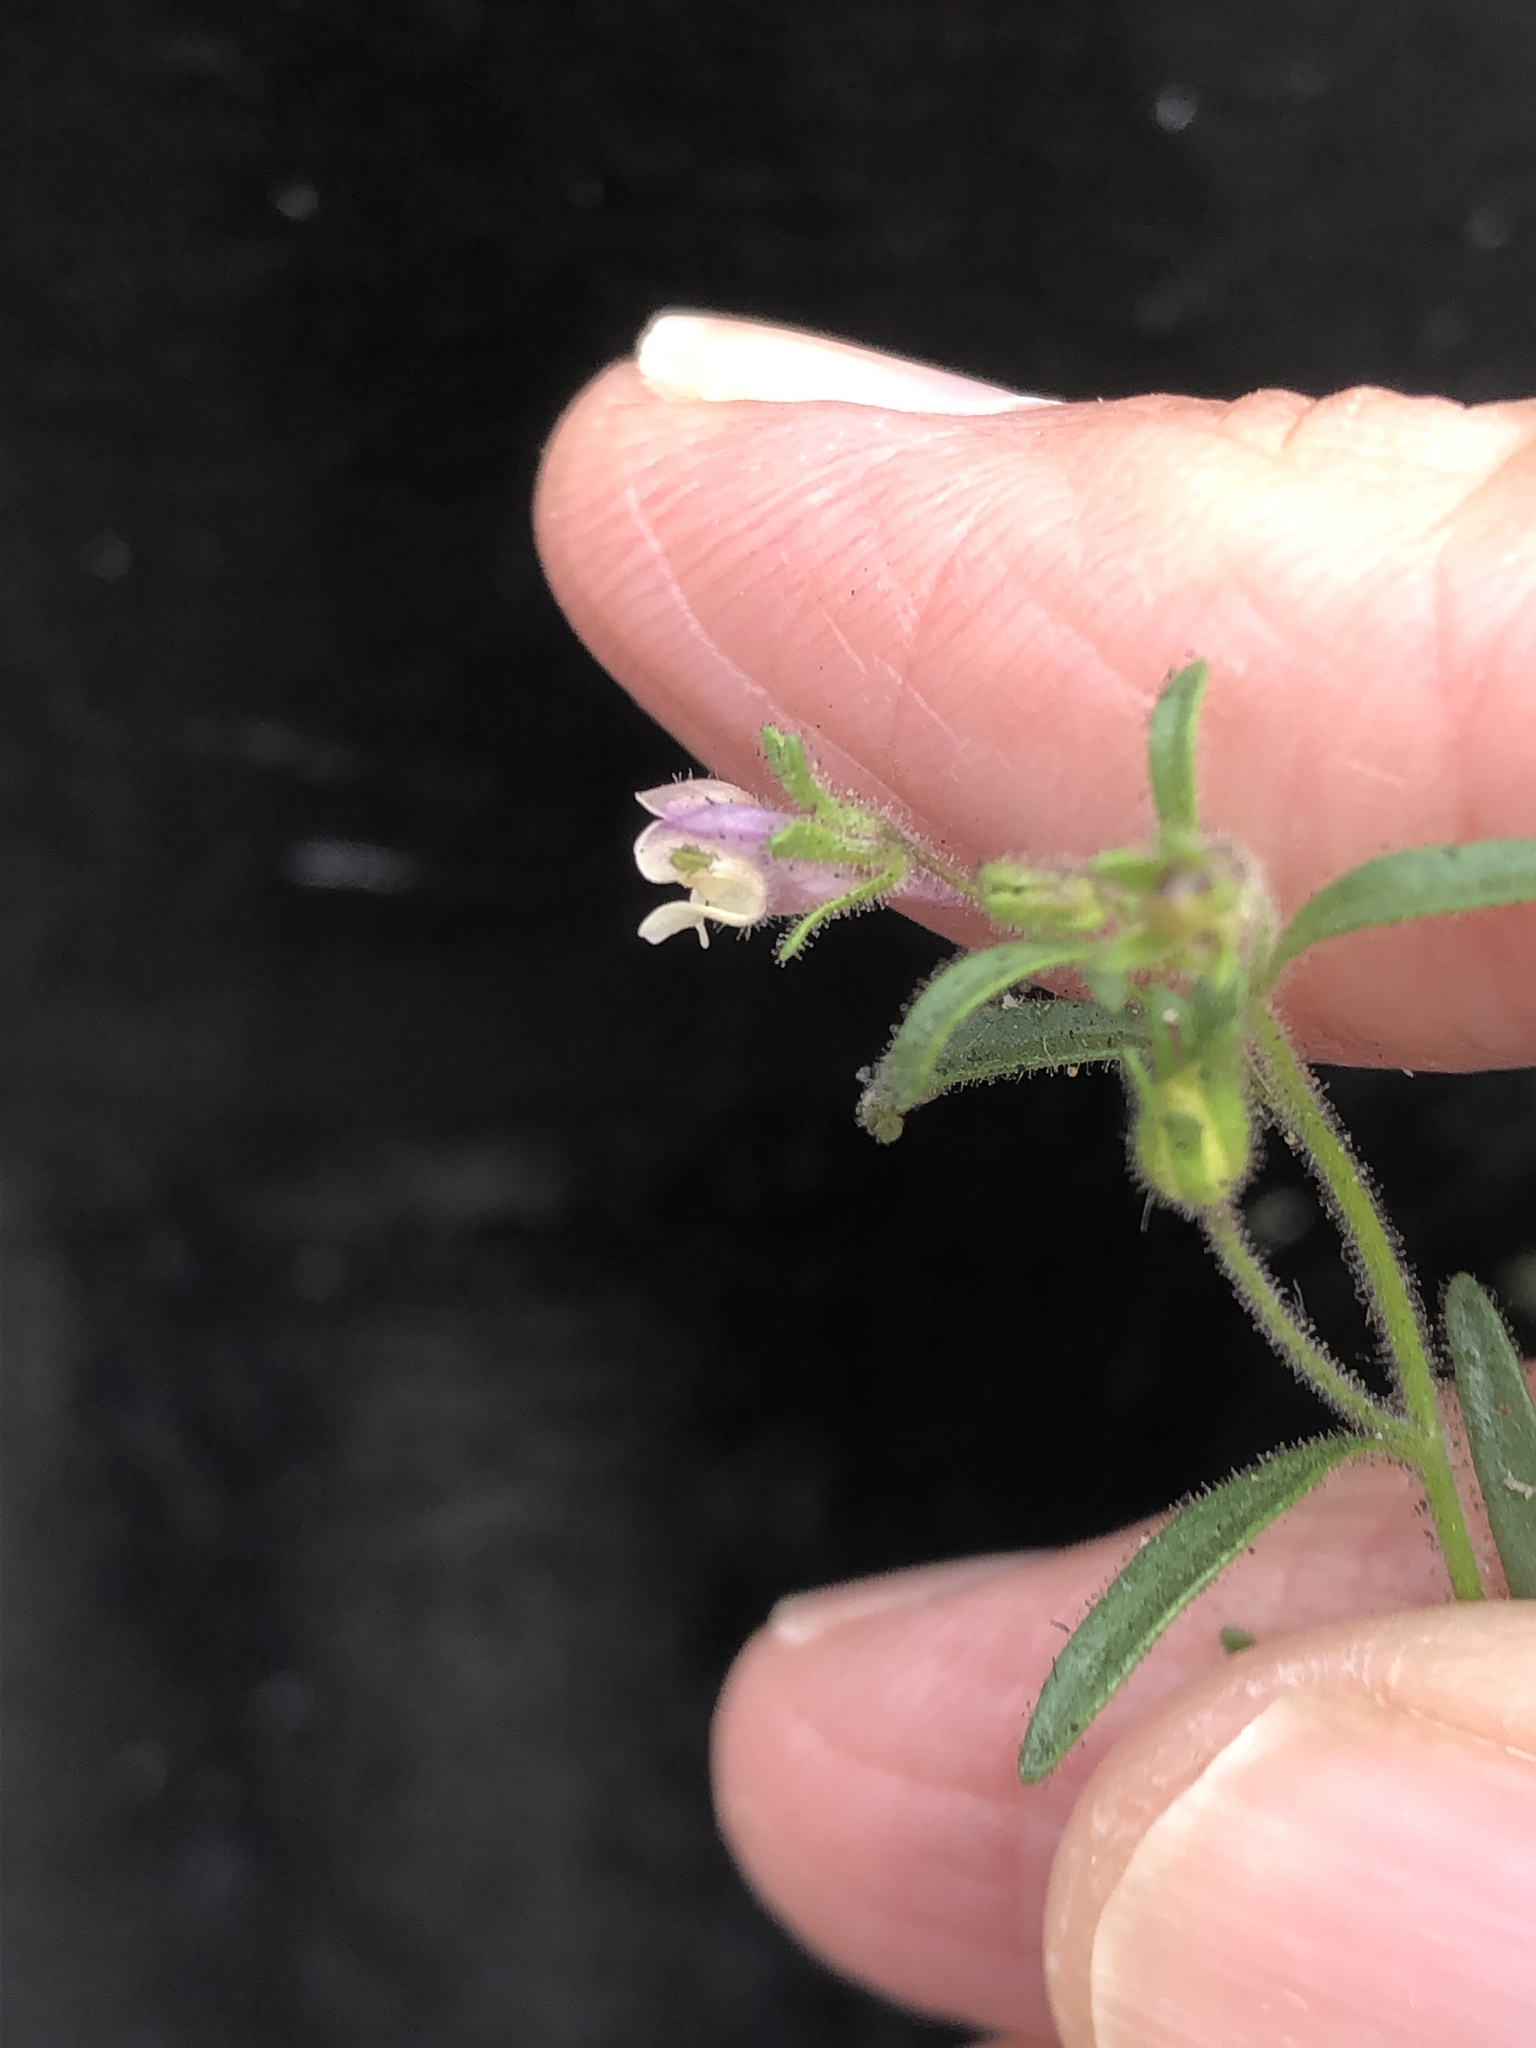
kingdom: Plantae
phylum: Tracheophyta
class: Magnoliopsida
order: Lamiales
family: Plantaginaceae
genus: Chaenorhinum
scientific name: Chaenorhinum minus
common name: Dwarf snapdragon
